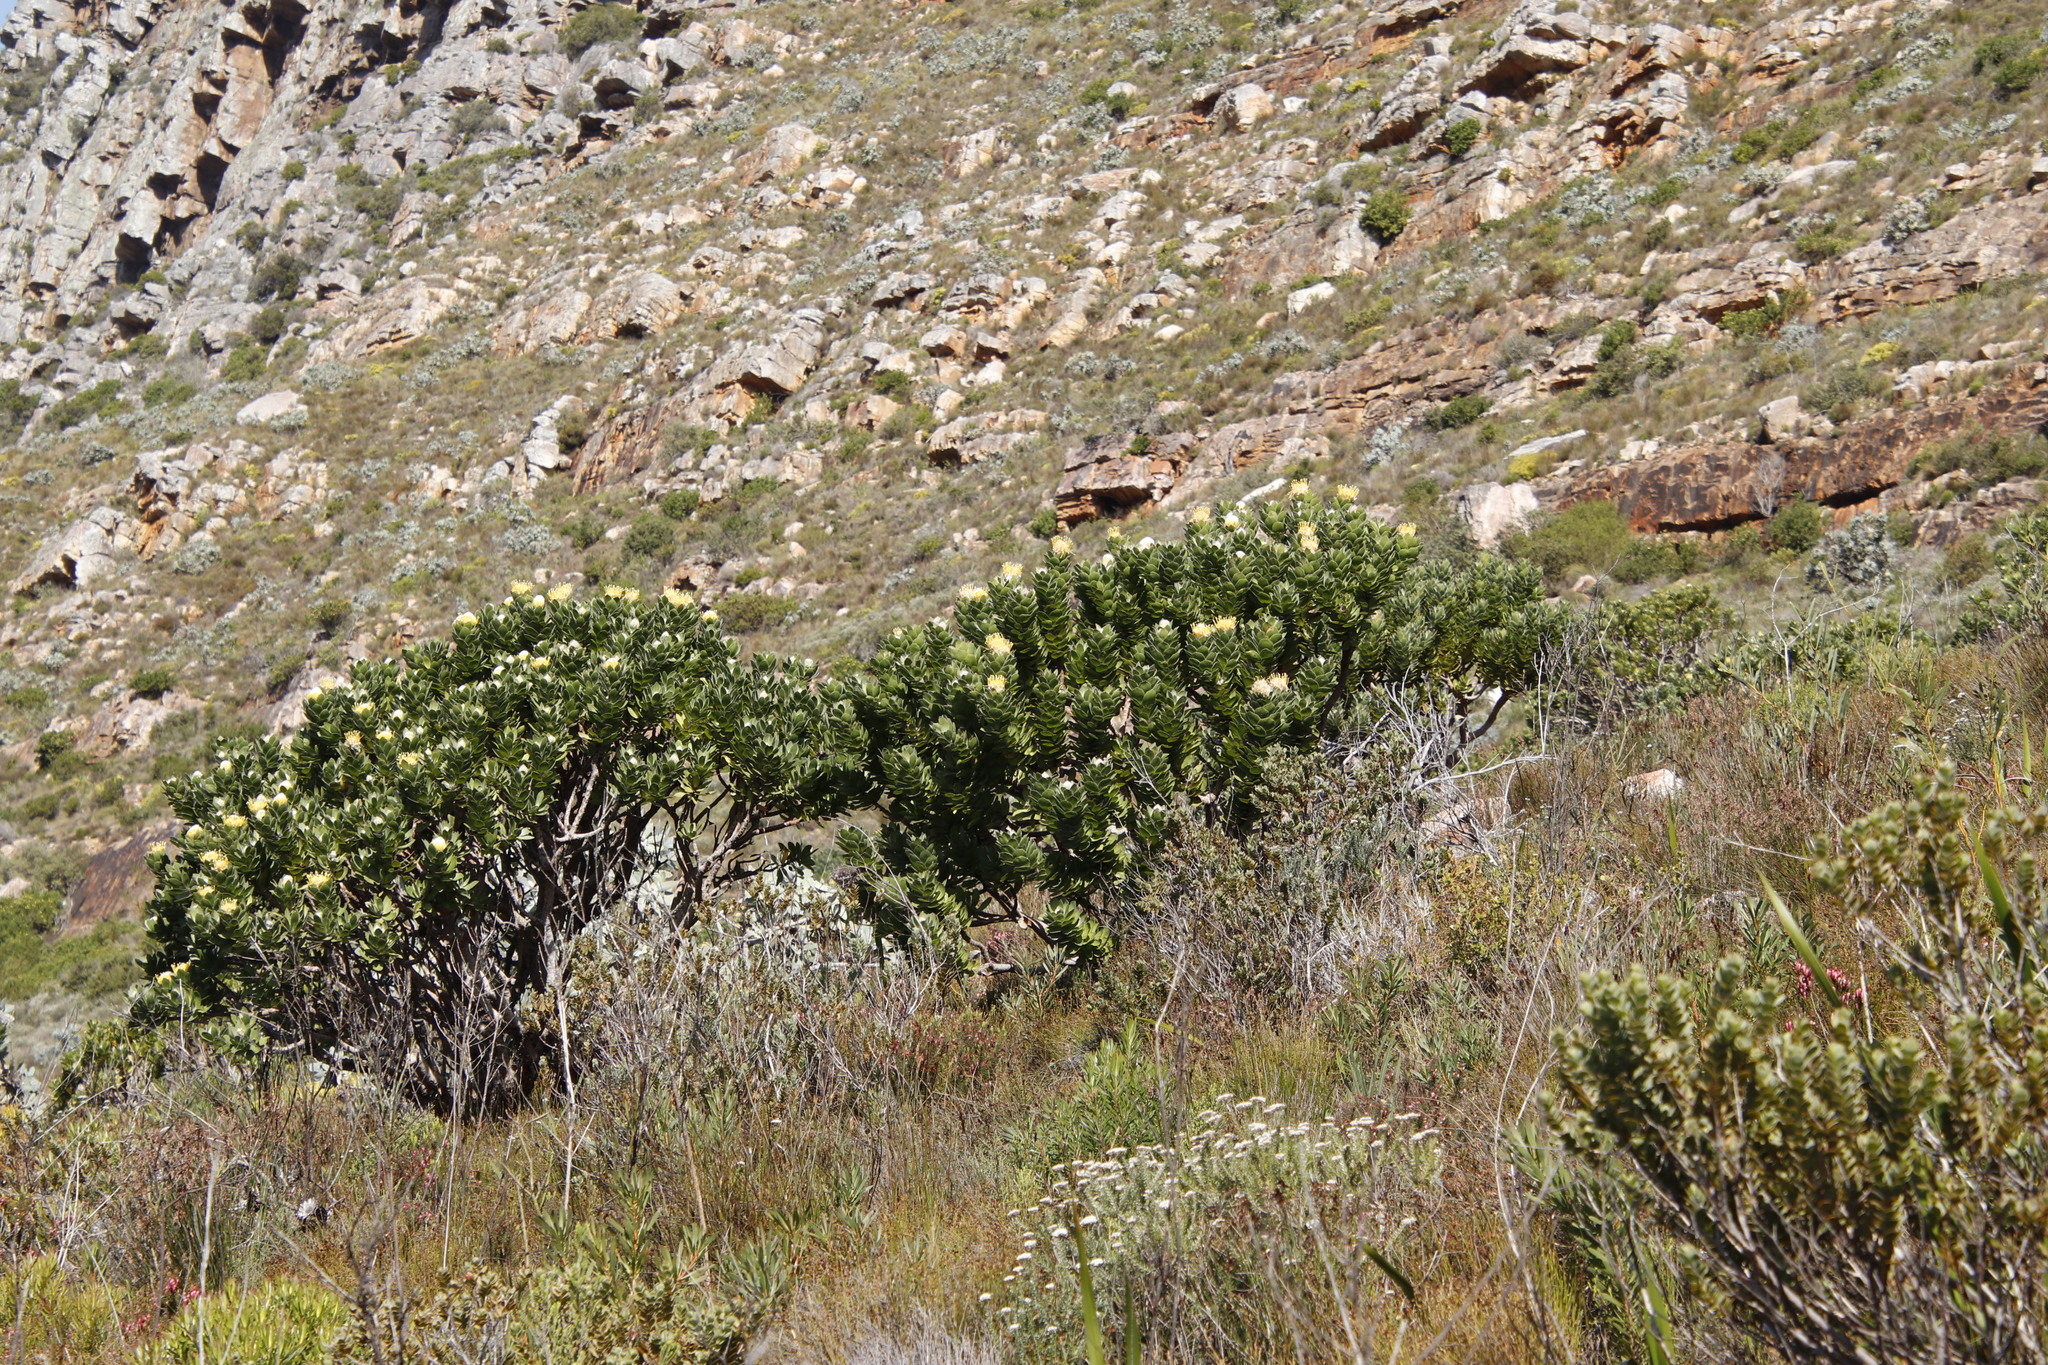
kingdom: Plantae
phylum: Tracheophyta
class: Magnoliopsida
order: Proteales
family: Proteaceae
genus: Leucospermum
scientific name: Leucospermum conocarpodendron
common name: Tree pincushion
